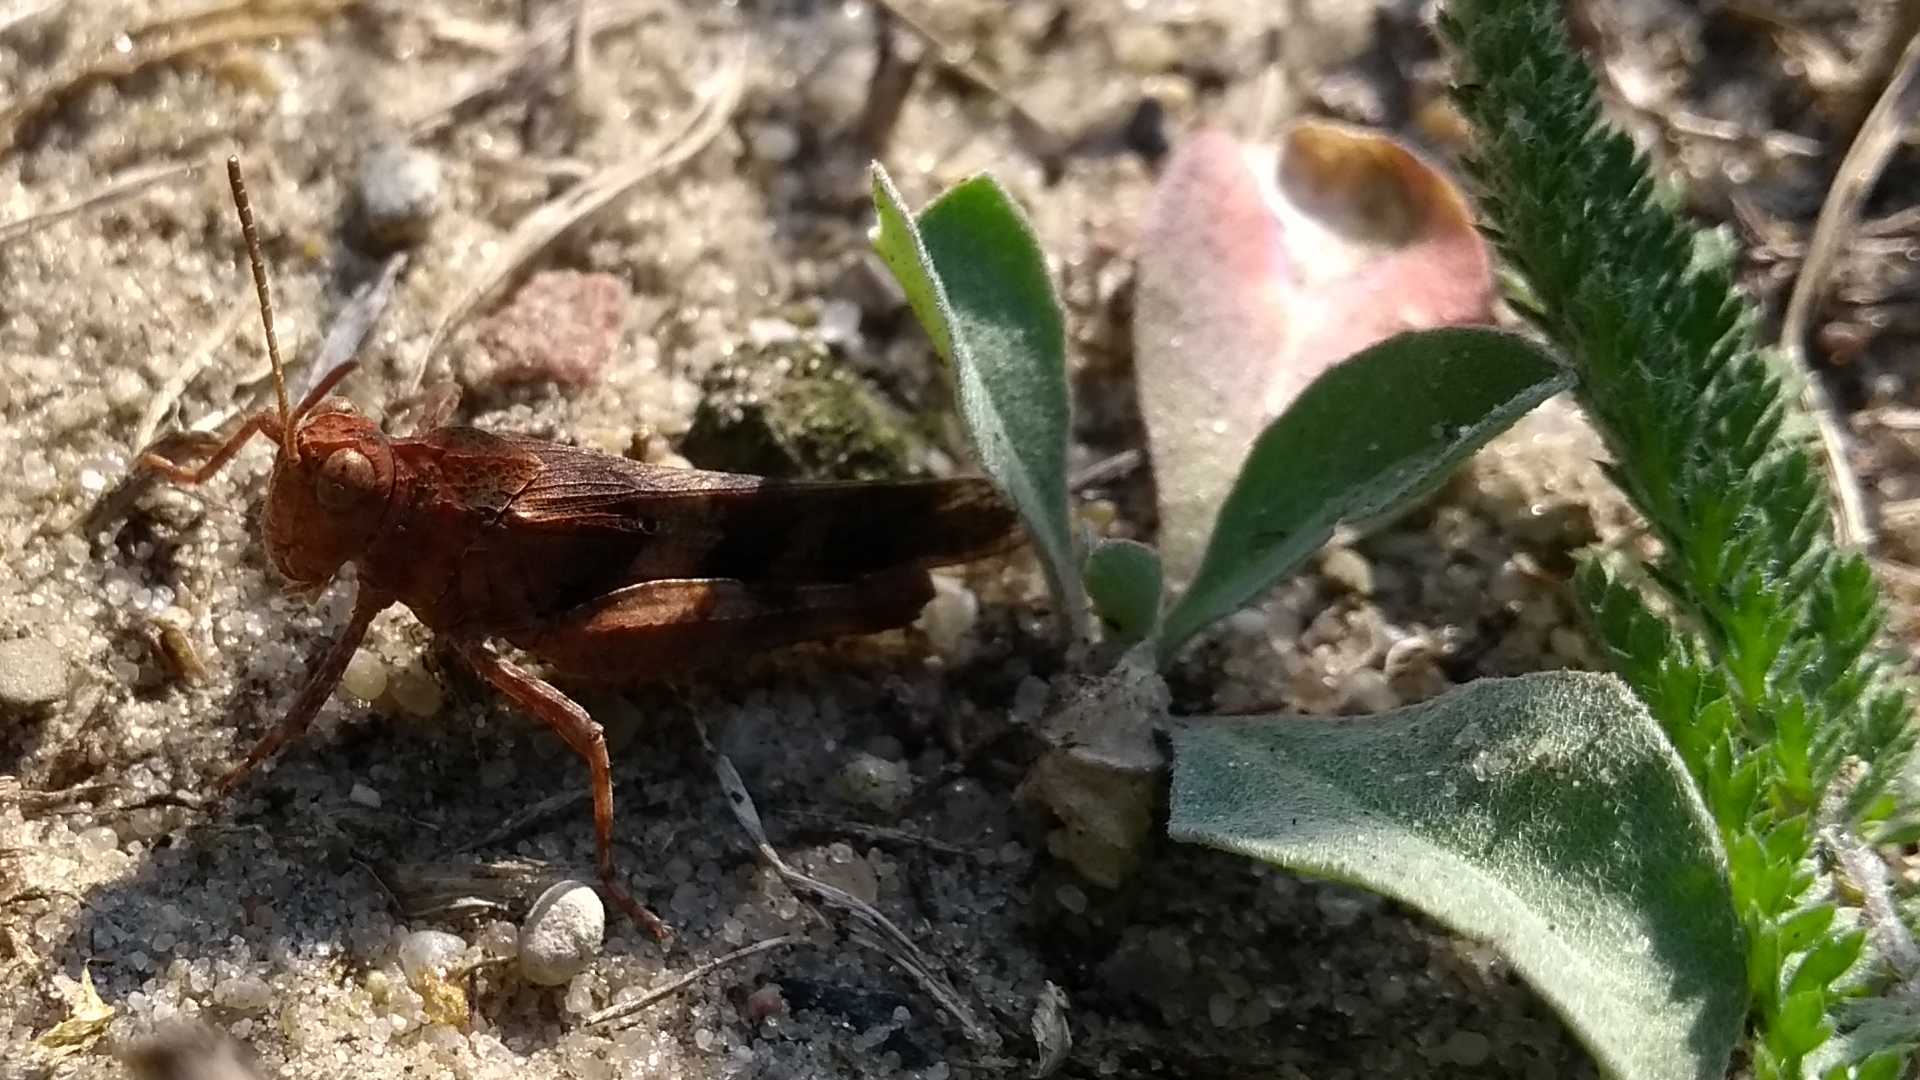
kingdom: Animalia
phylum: Arthropoda
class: Insecta
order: Orthoptera
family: Acrididae
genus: Oedipoda
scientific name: Oedipoda caerulescens
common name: Blue-winged grasshopper
